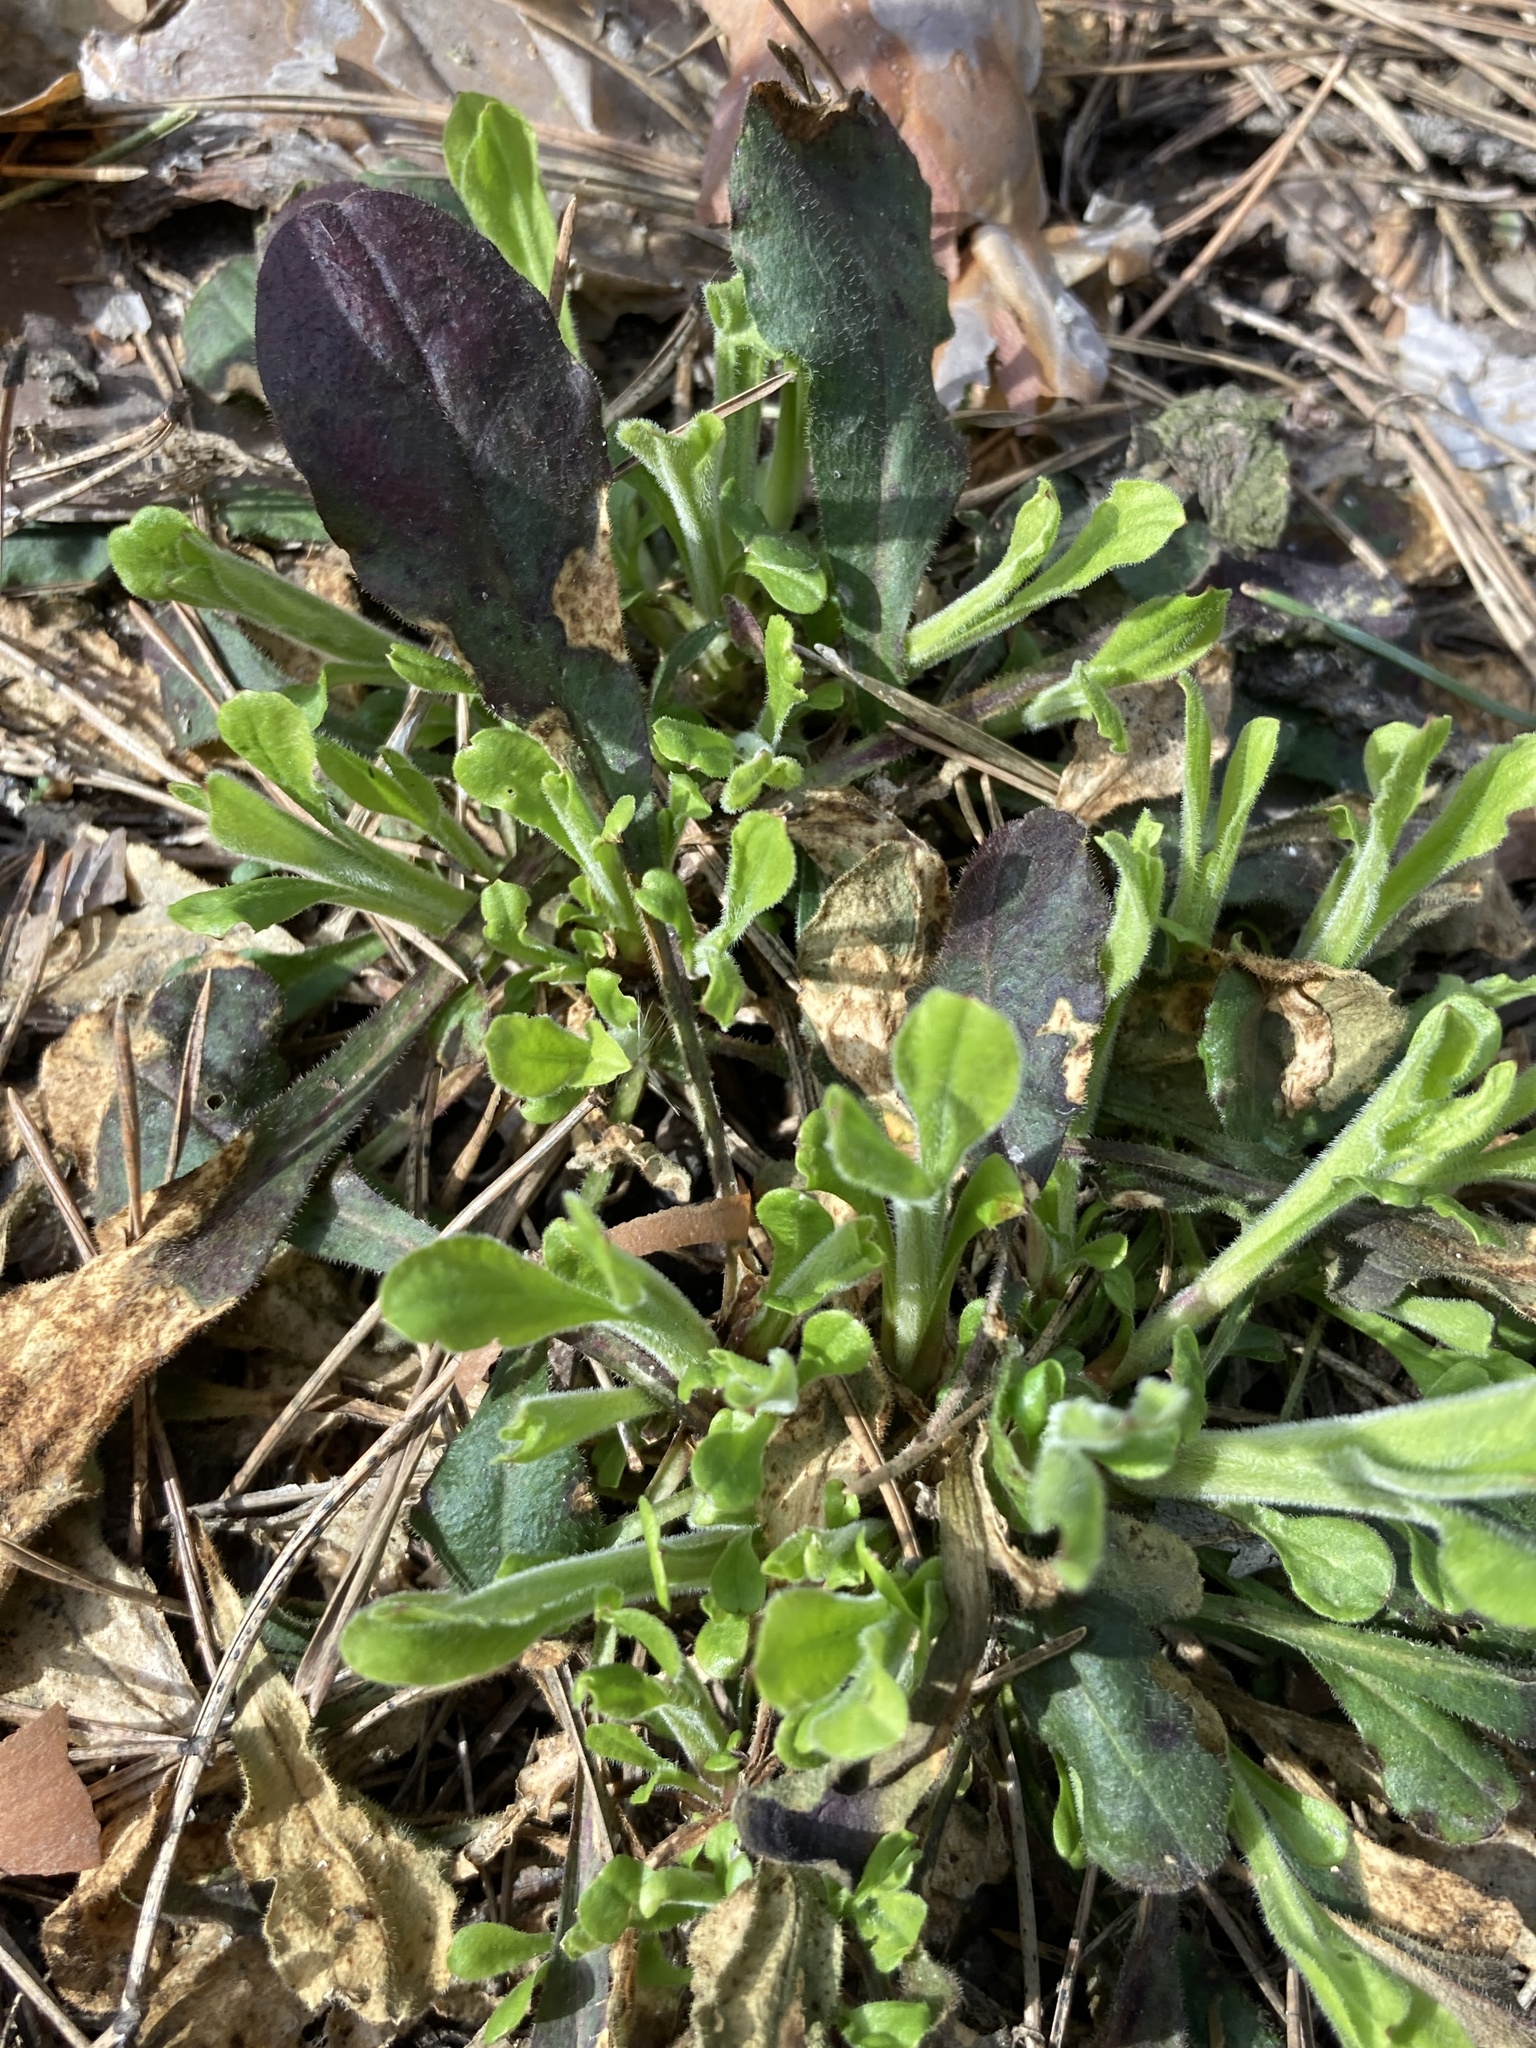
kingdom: Plantae
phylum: Tracheophyta
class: Magnoliopsida
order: Caryophyllales
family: Caryophyllaceae
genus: Silene
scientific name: Silene nutans
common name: Nottingham catchfly
